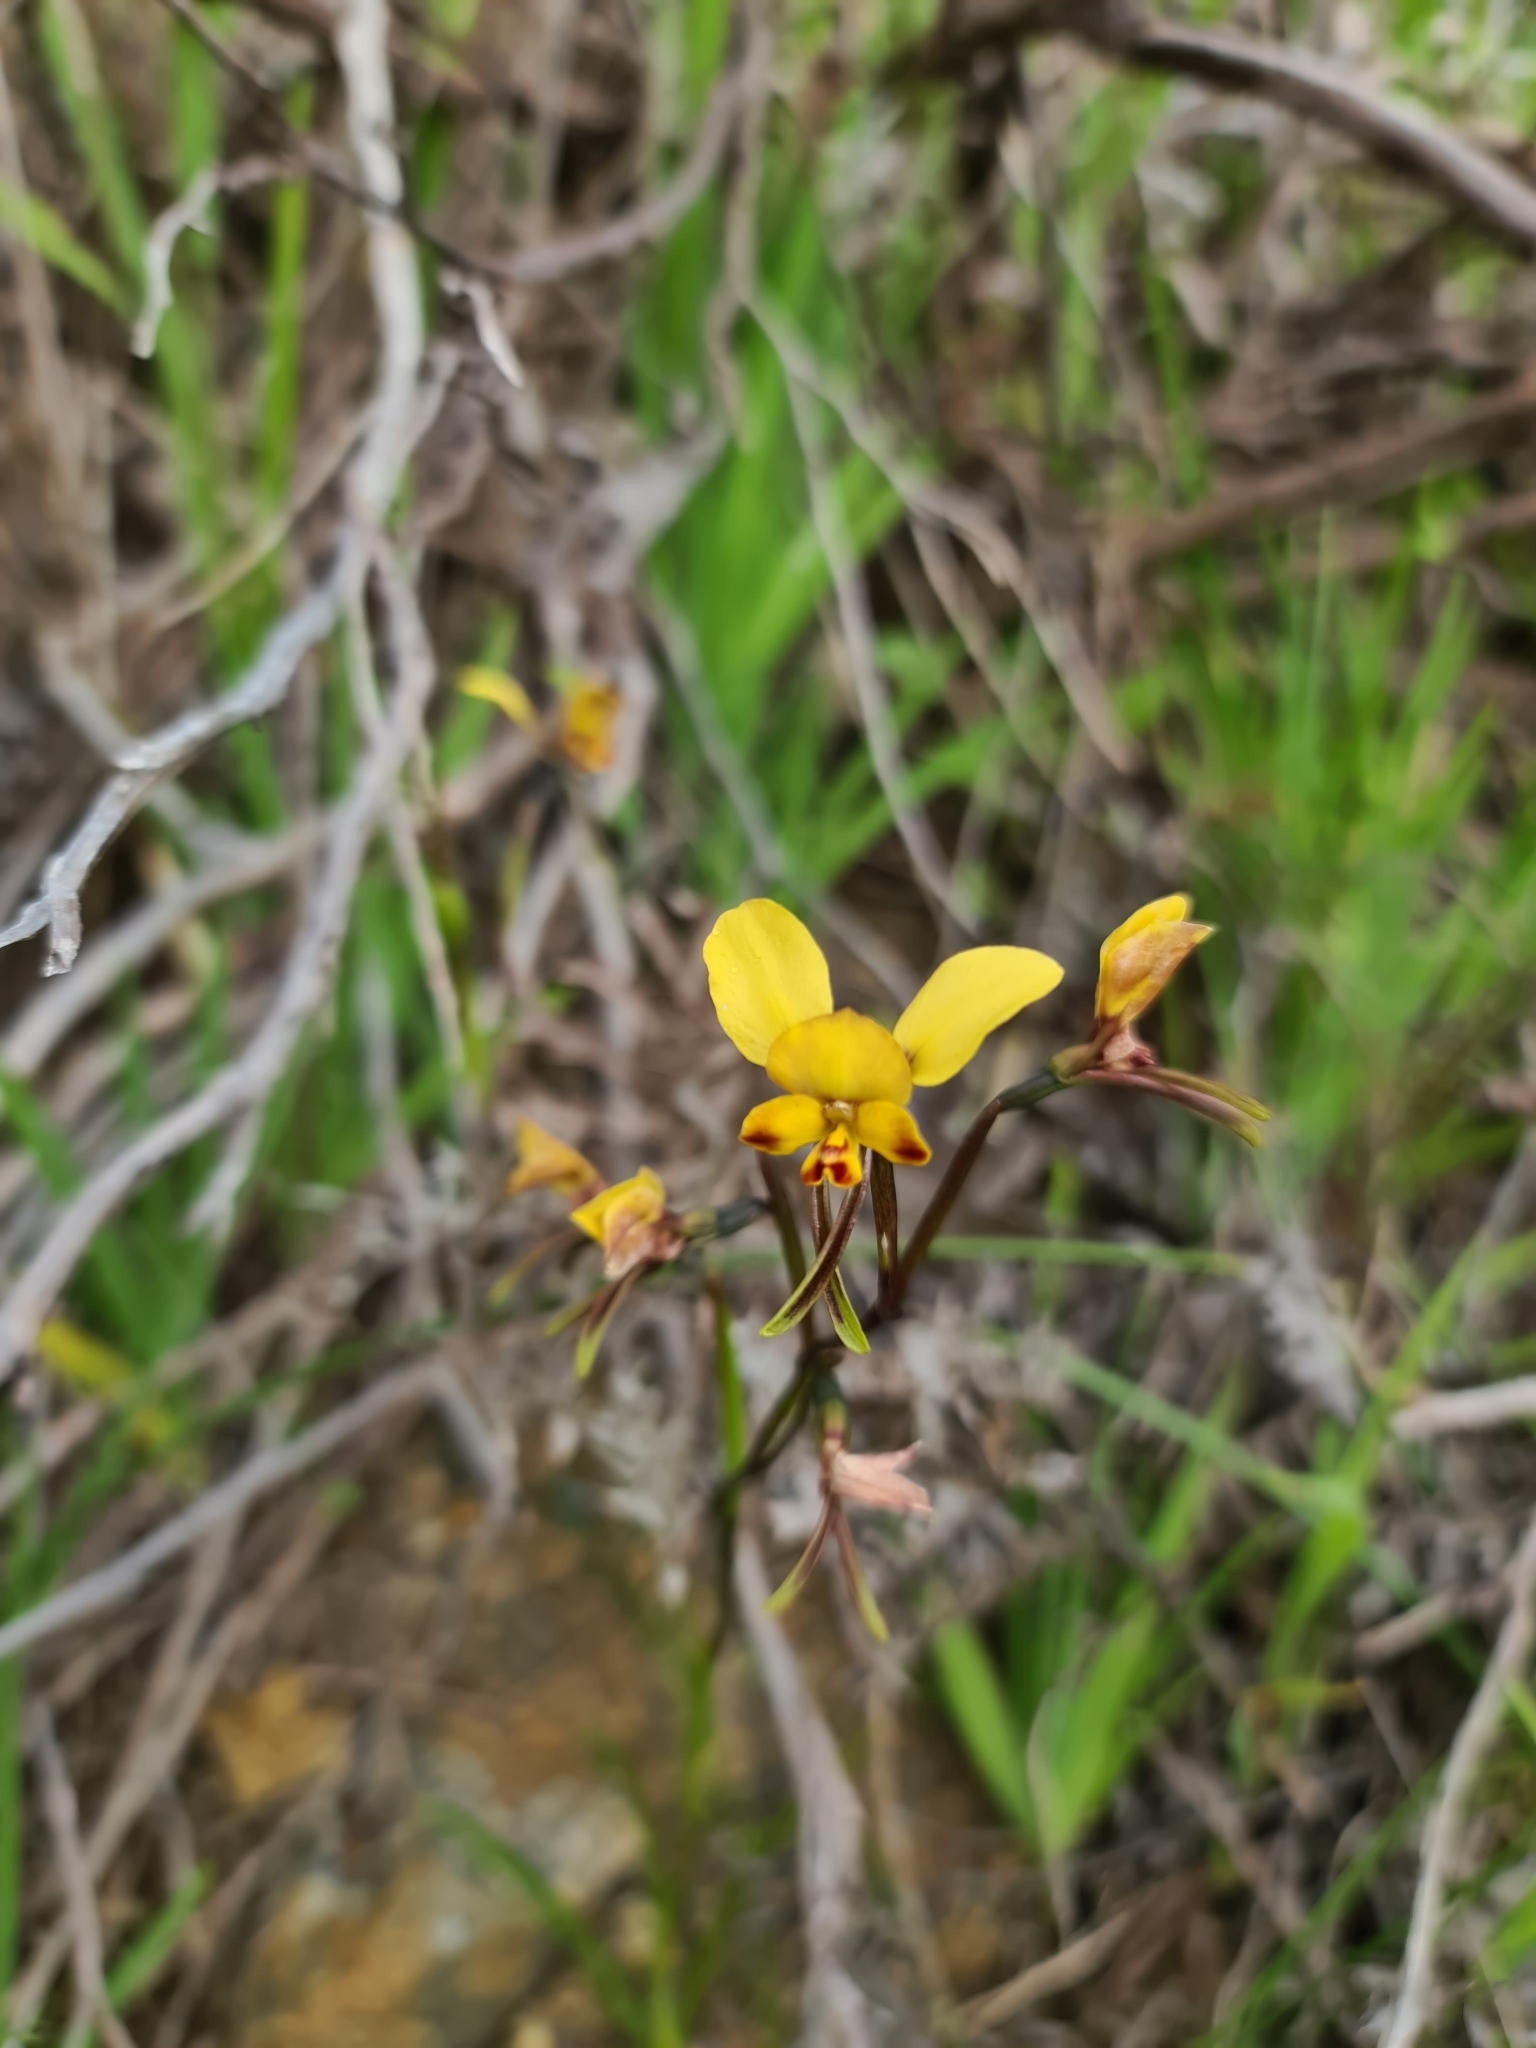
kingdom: Plantae
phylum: Tracheophyta
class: Liliopsida
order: Asparagales
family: Orchidaceae
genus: Diuris
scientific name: Diuris corymbosa
